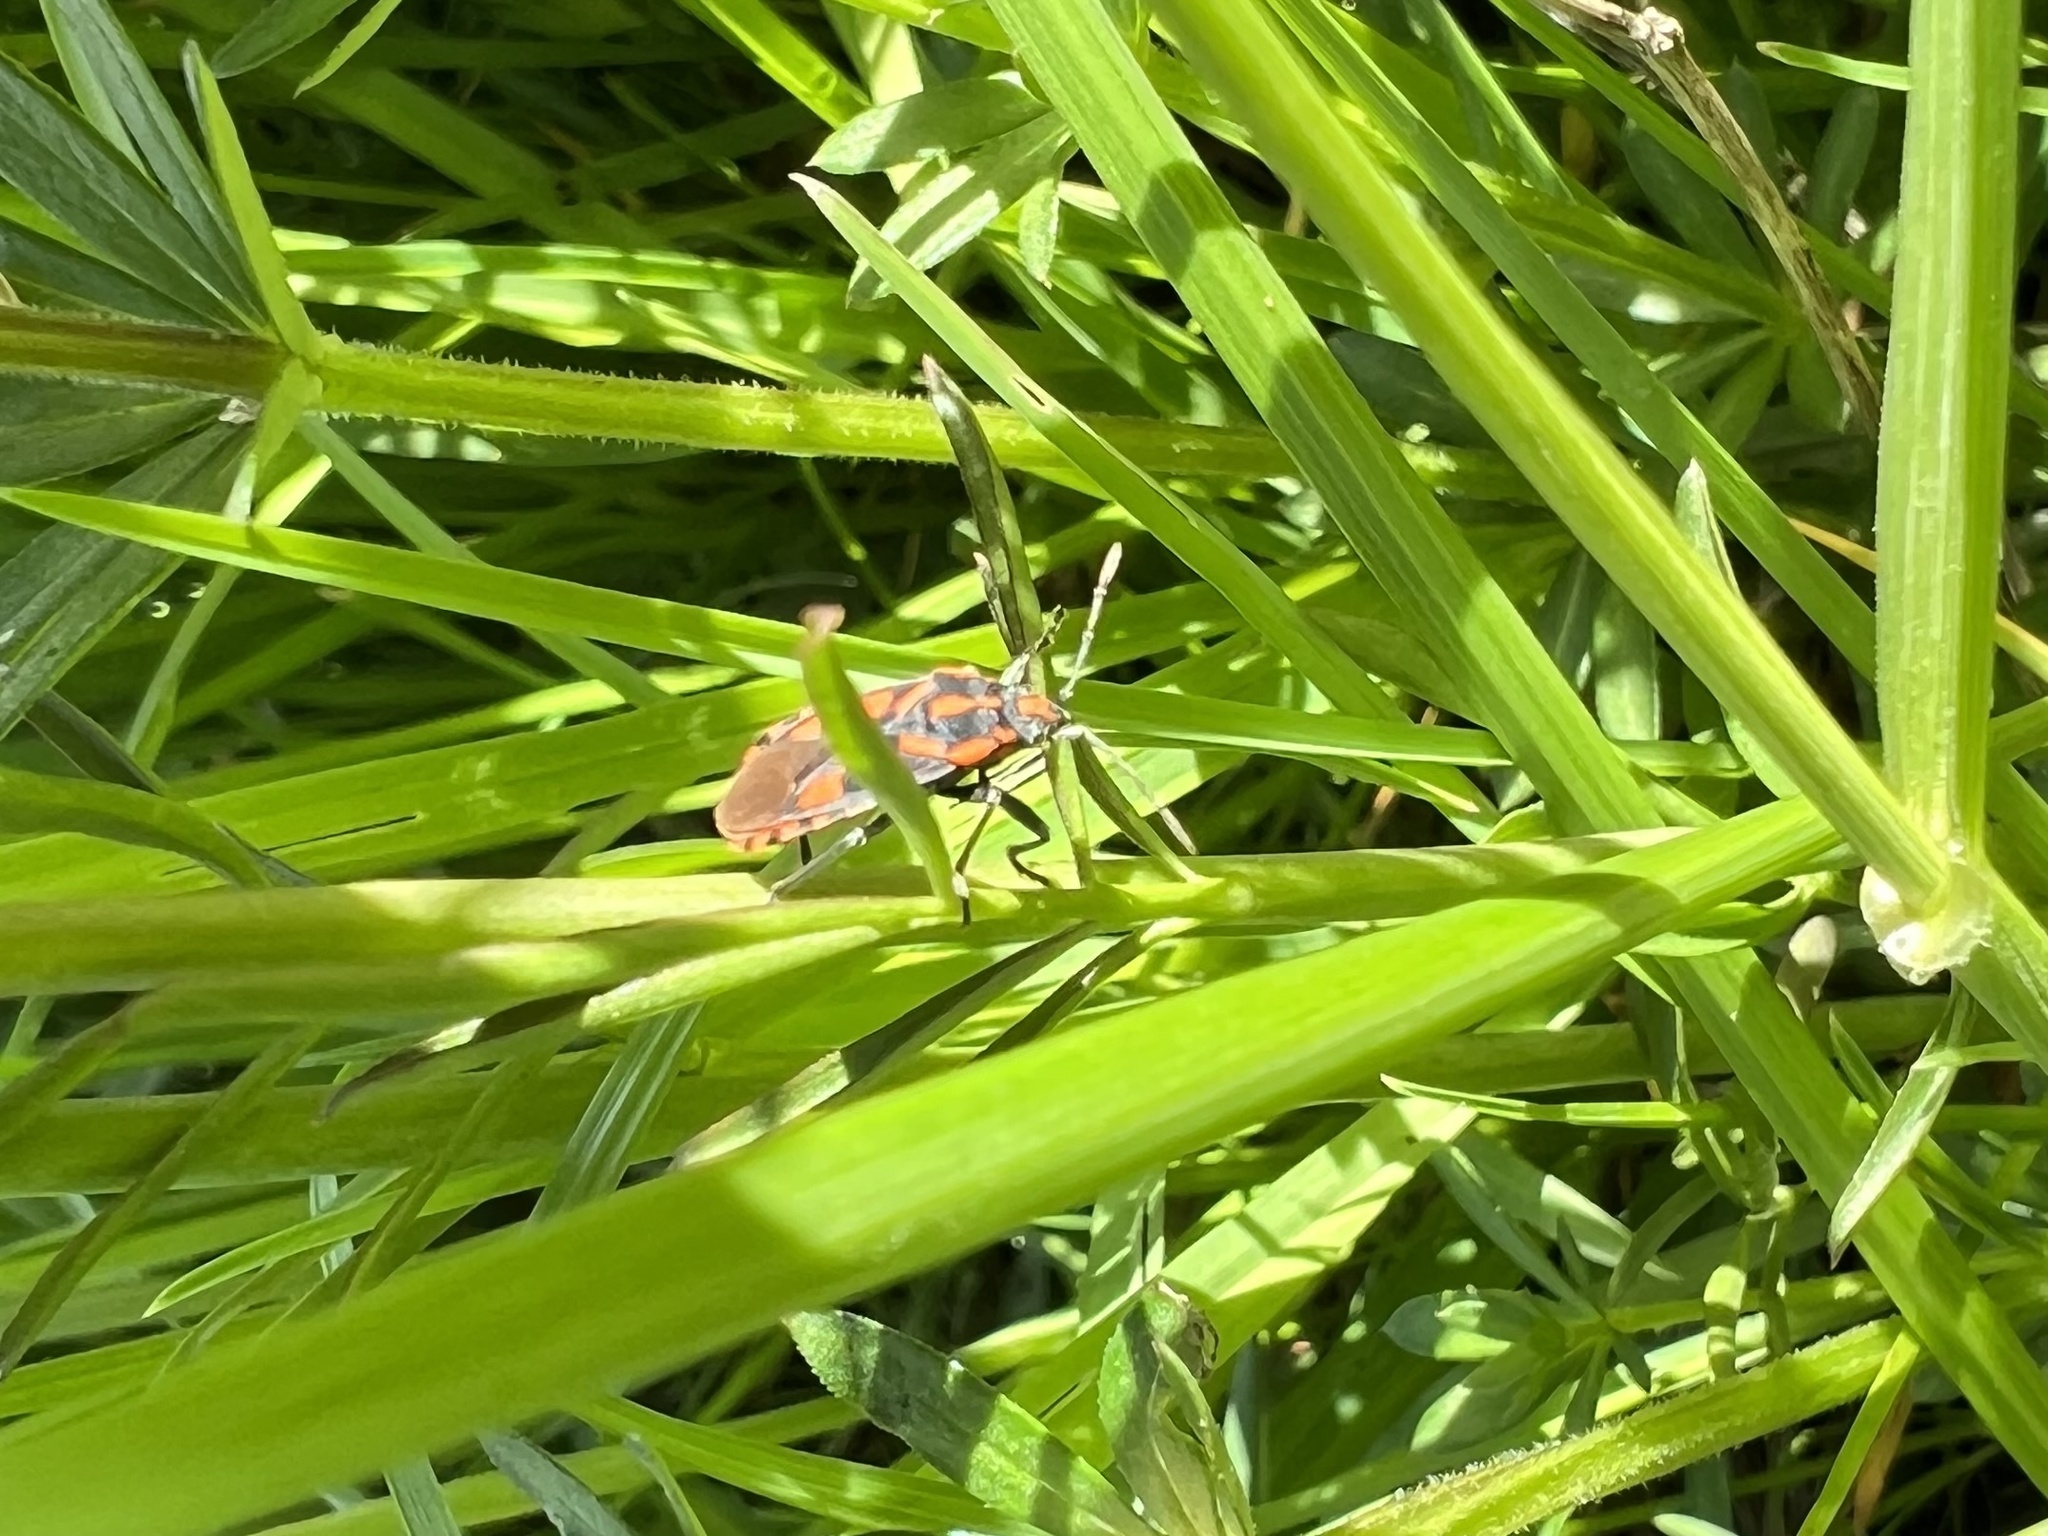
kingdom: Animalia
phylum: Arthropoda
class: Insecta
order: Hemiptera
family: Lygaeidae
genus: Spilostethus
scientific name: Spilostethus saxatilis
